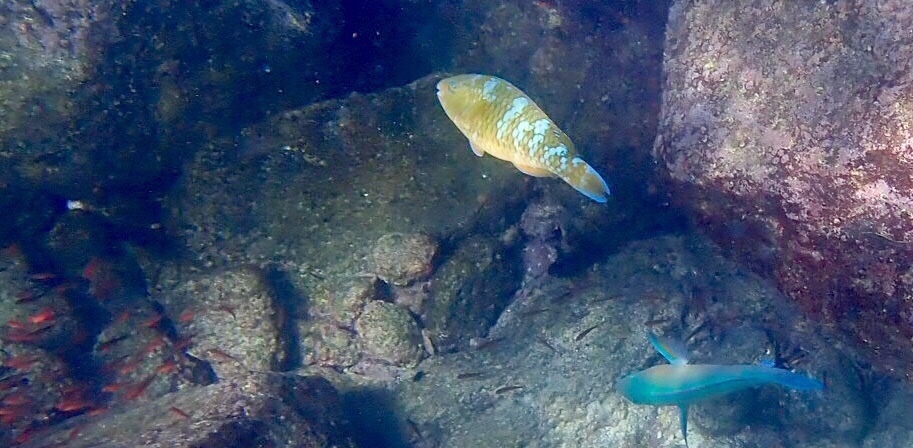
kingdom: Animalia
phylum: Chordata
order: Perciformes
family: Scaridae
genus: Scarus
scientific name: Scarus ghobban
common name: Blue-barred parrotfish
